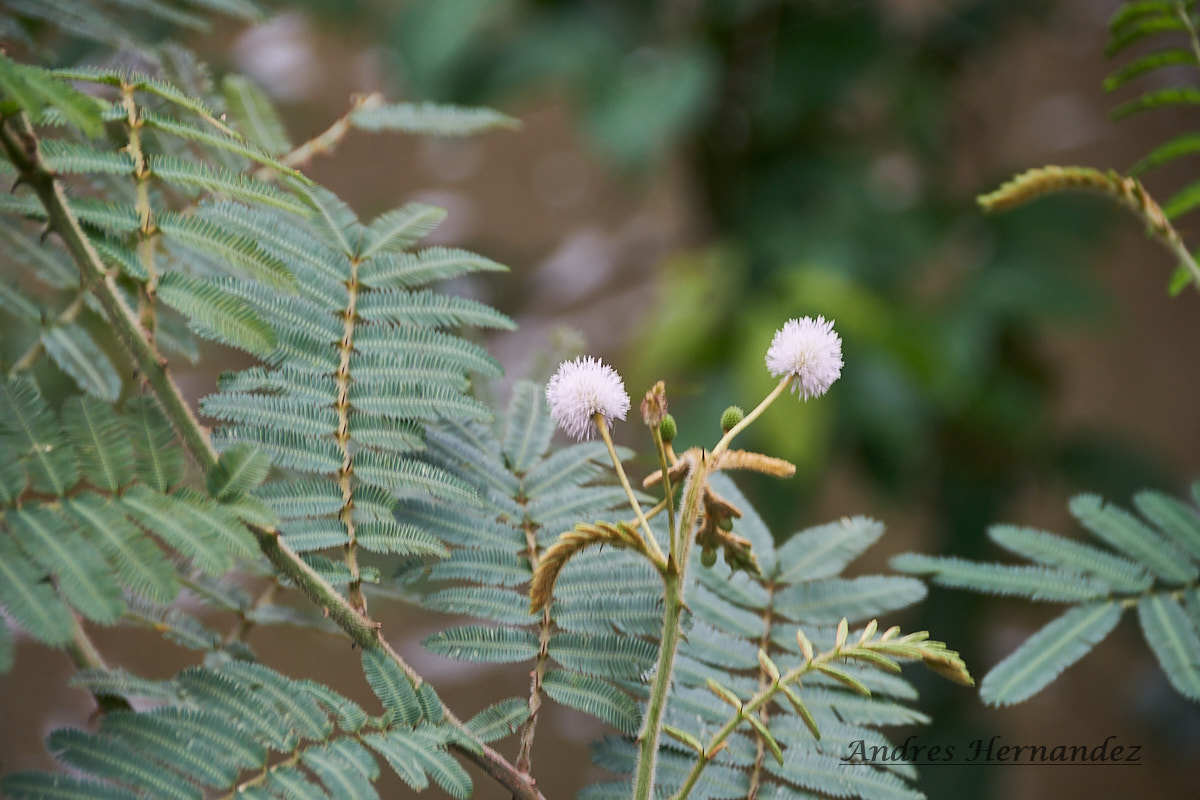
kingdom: Plantae
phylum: Tracheophyta
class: Magnoliopsida
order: Fabales
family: Fabaceae
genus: Mimosa
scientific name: Mimosa pigra
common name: Black mimosa
